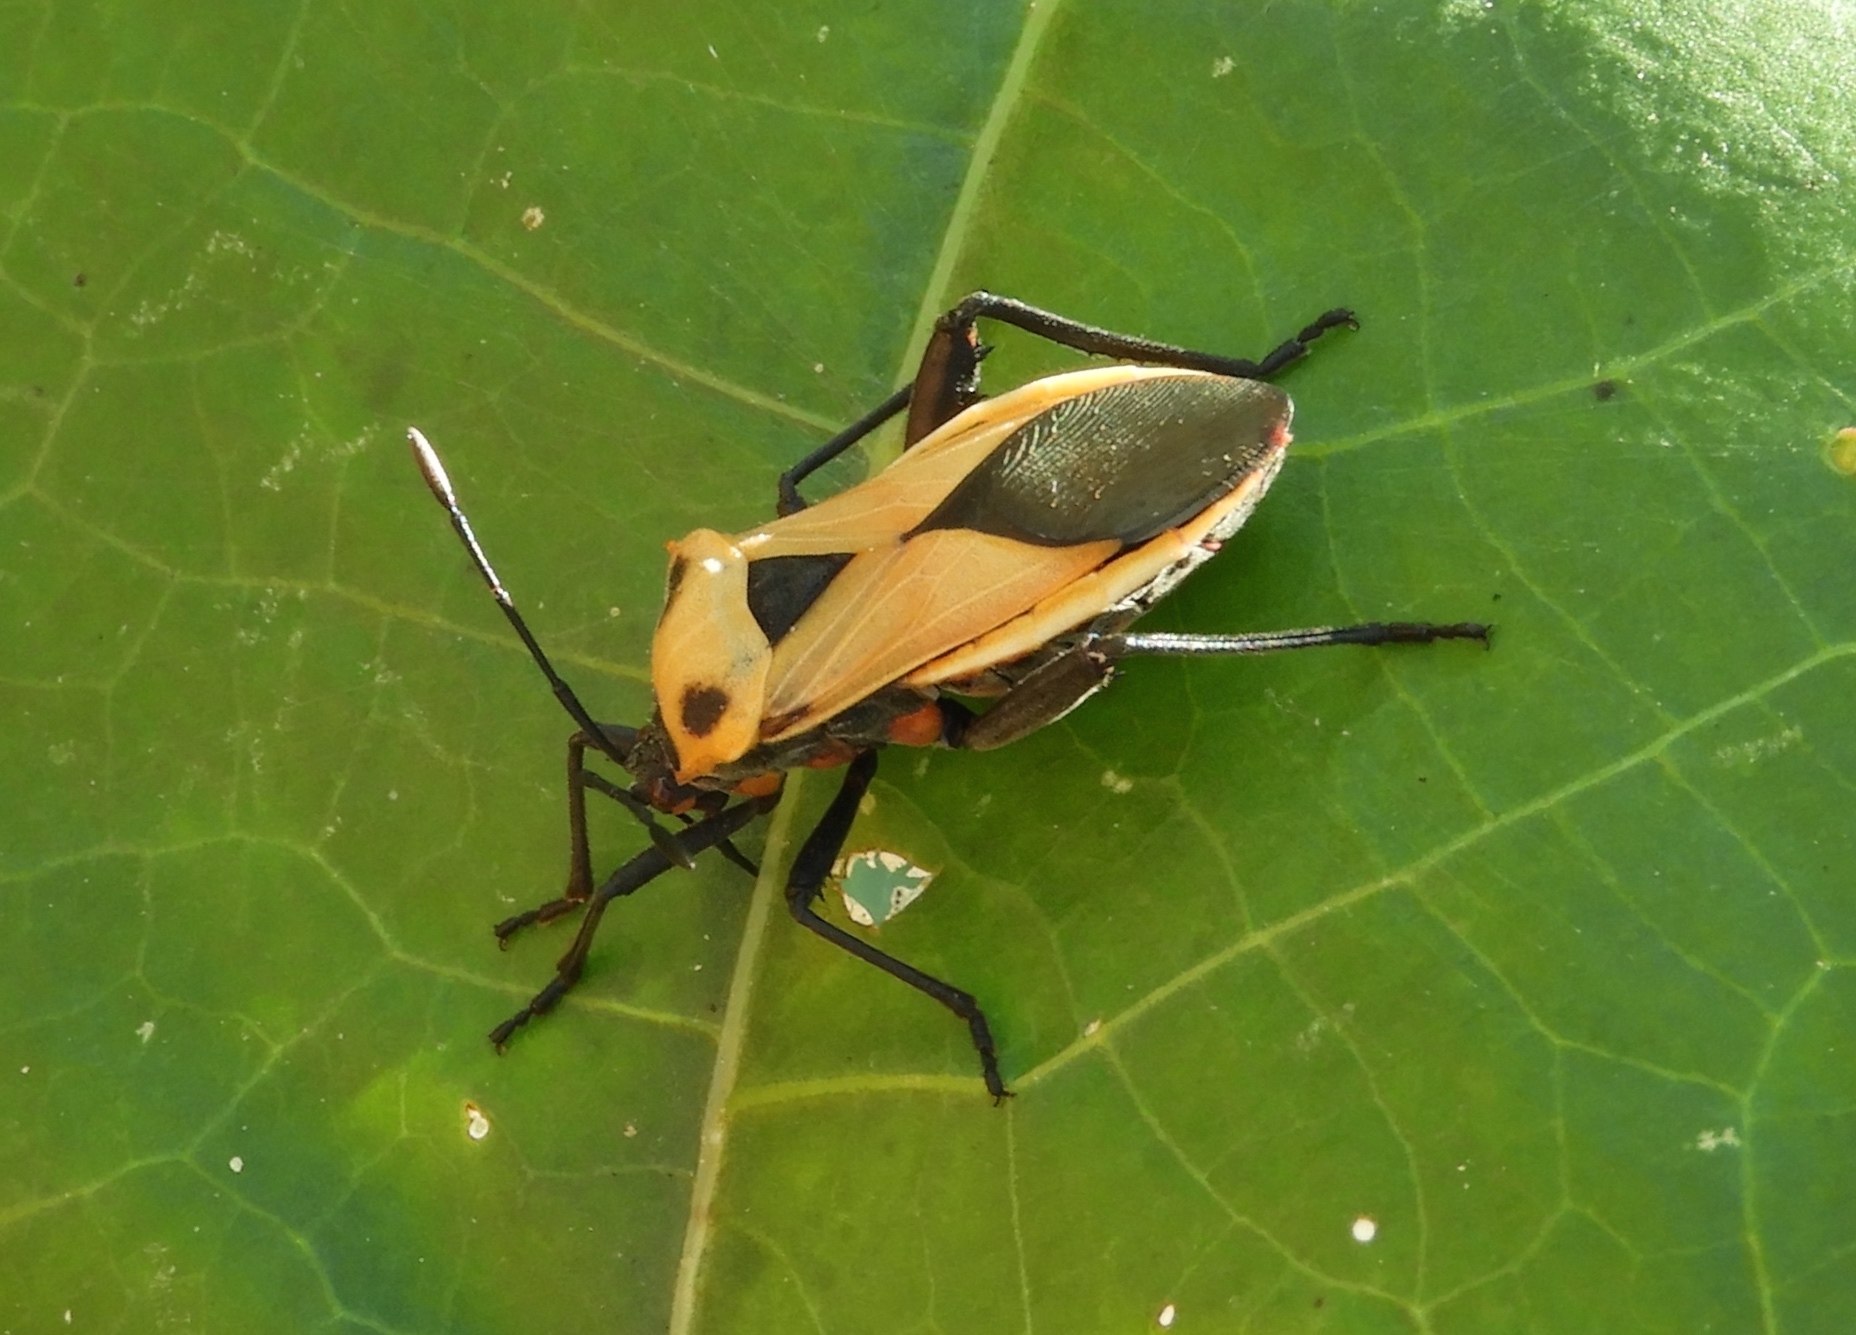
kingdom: Animalia
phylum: Arthropoda
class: Insecta
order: Hemiptera
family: Coreidae
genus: Sagotylus
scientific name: Sagotylus confluens
